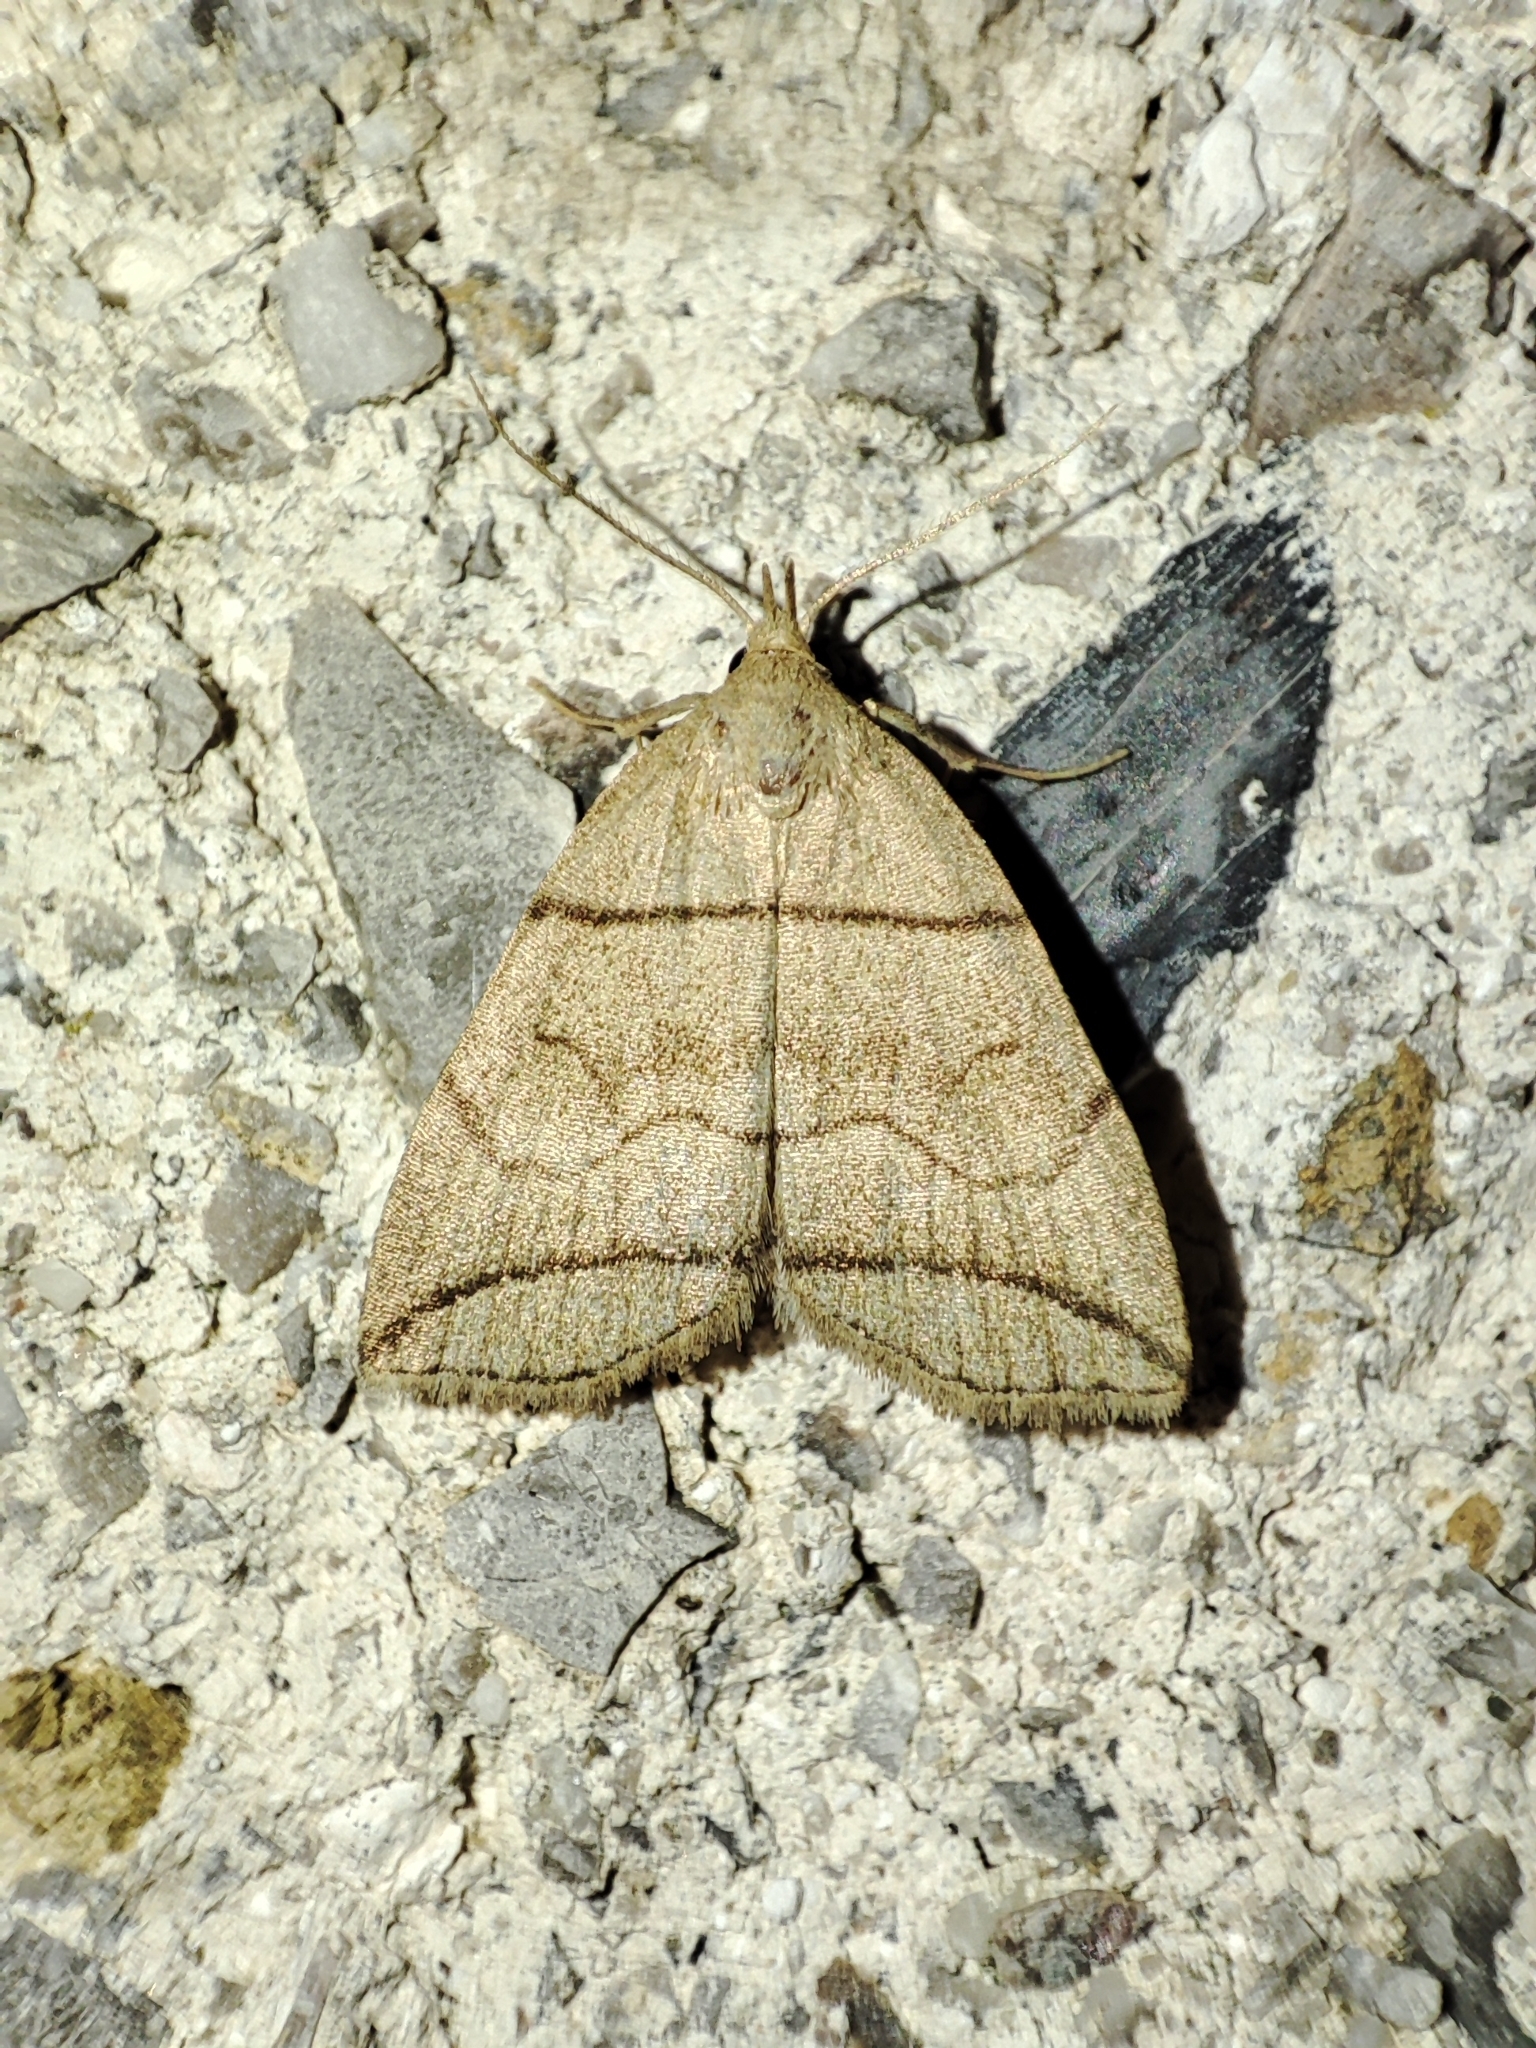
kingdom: Animalia
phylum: Arthropoda
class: Insecta
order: Lepidoptera
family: Erebidae
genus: Herminia
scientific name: Herminia grisealis
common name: Small fan-foot
